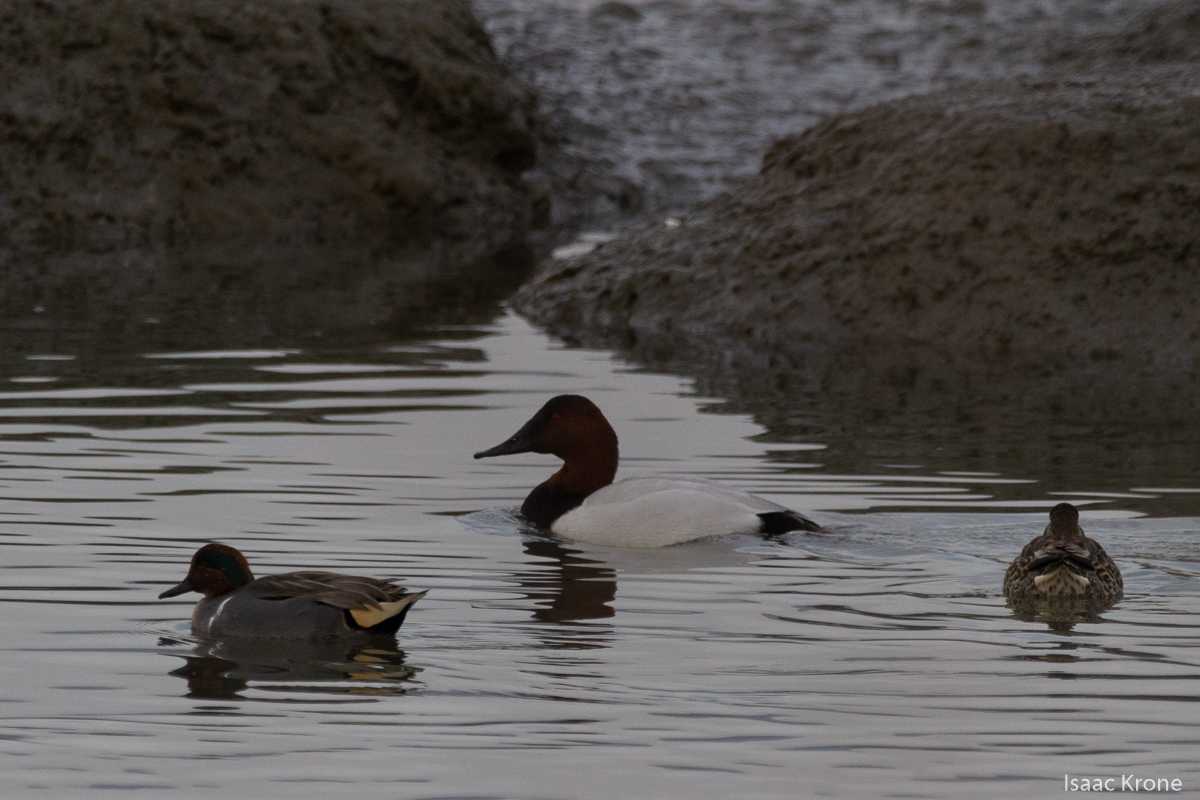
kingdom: Animalia
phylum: Chordata
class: Aves
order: Anseriformes
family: Anatidae
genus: Aythya
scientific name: Aythya valisineria
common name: Canvasback
